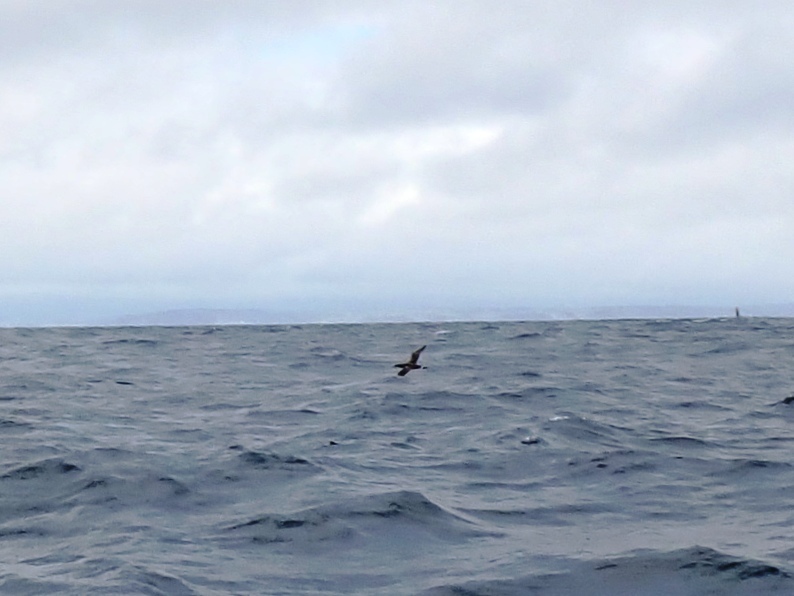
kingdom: Animalia
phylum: Chordata
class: Aves
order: Suliformes
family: Sulidae
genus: Morus
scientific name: Morus bassanus
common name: Northern gannet
